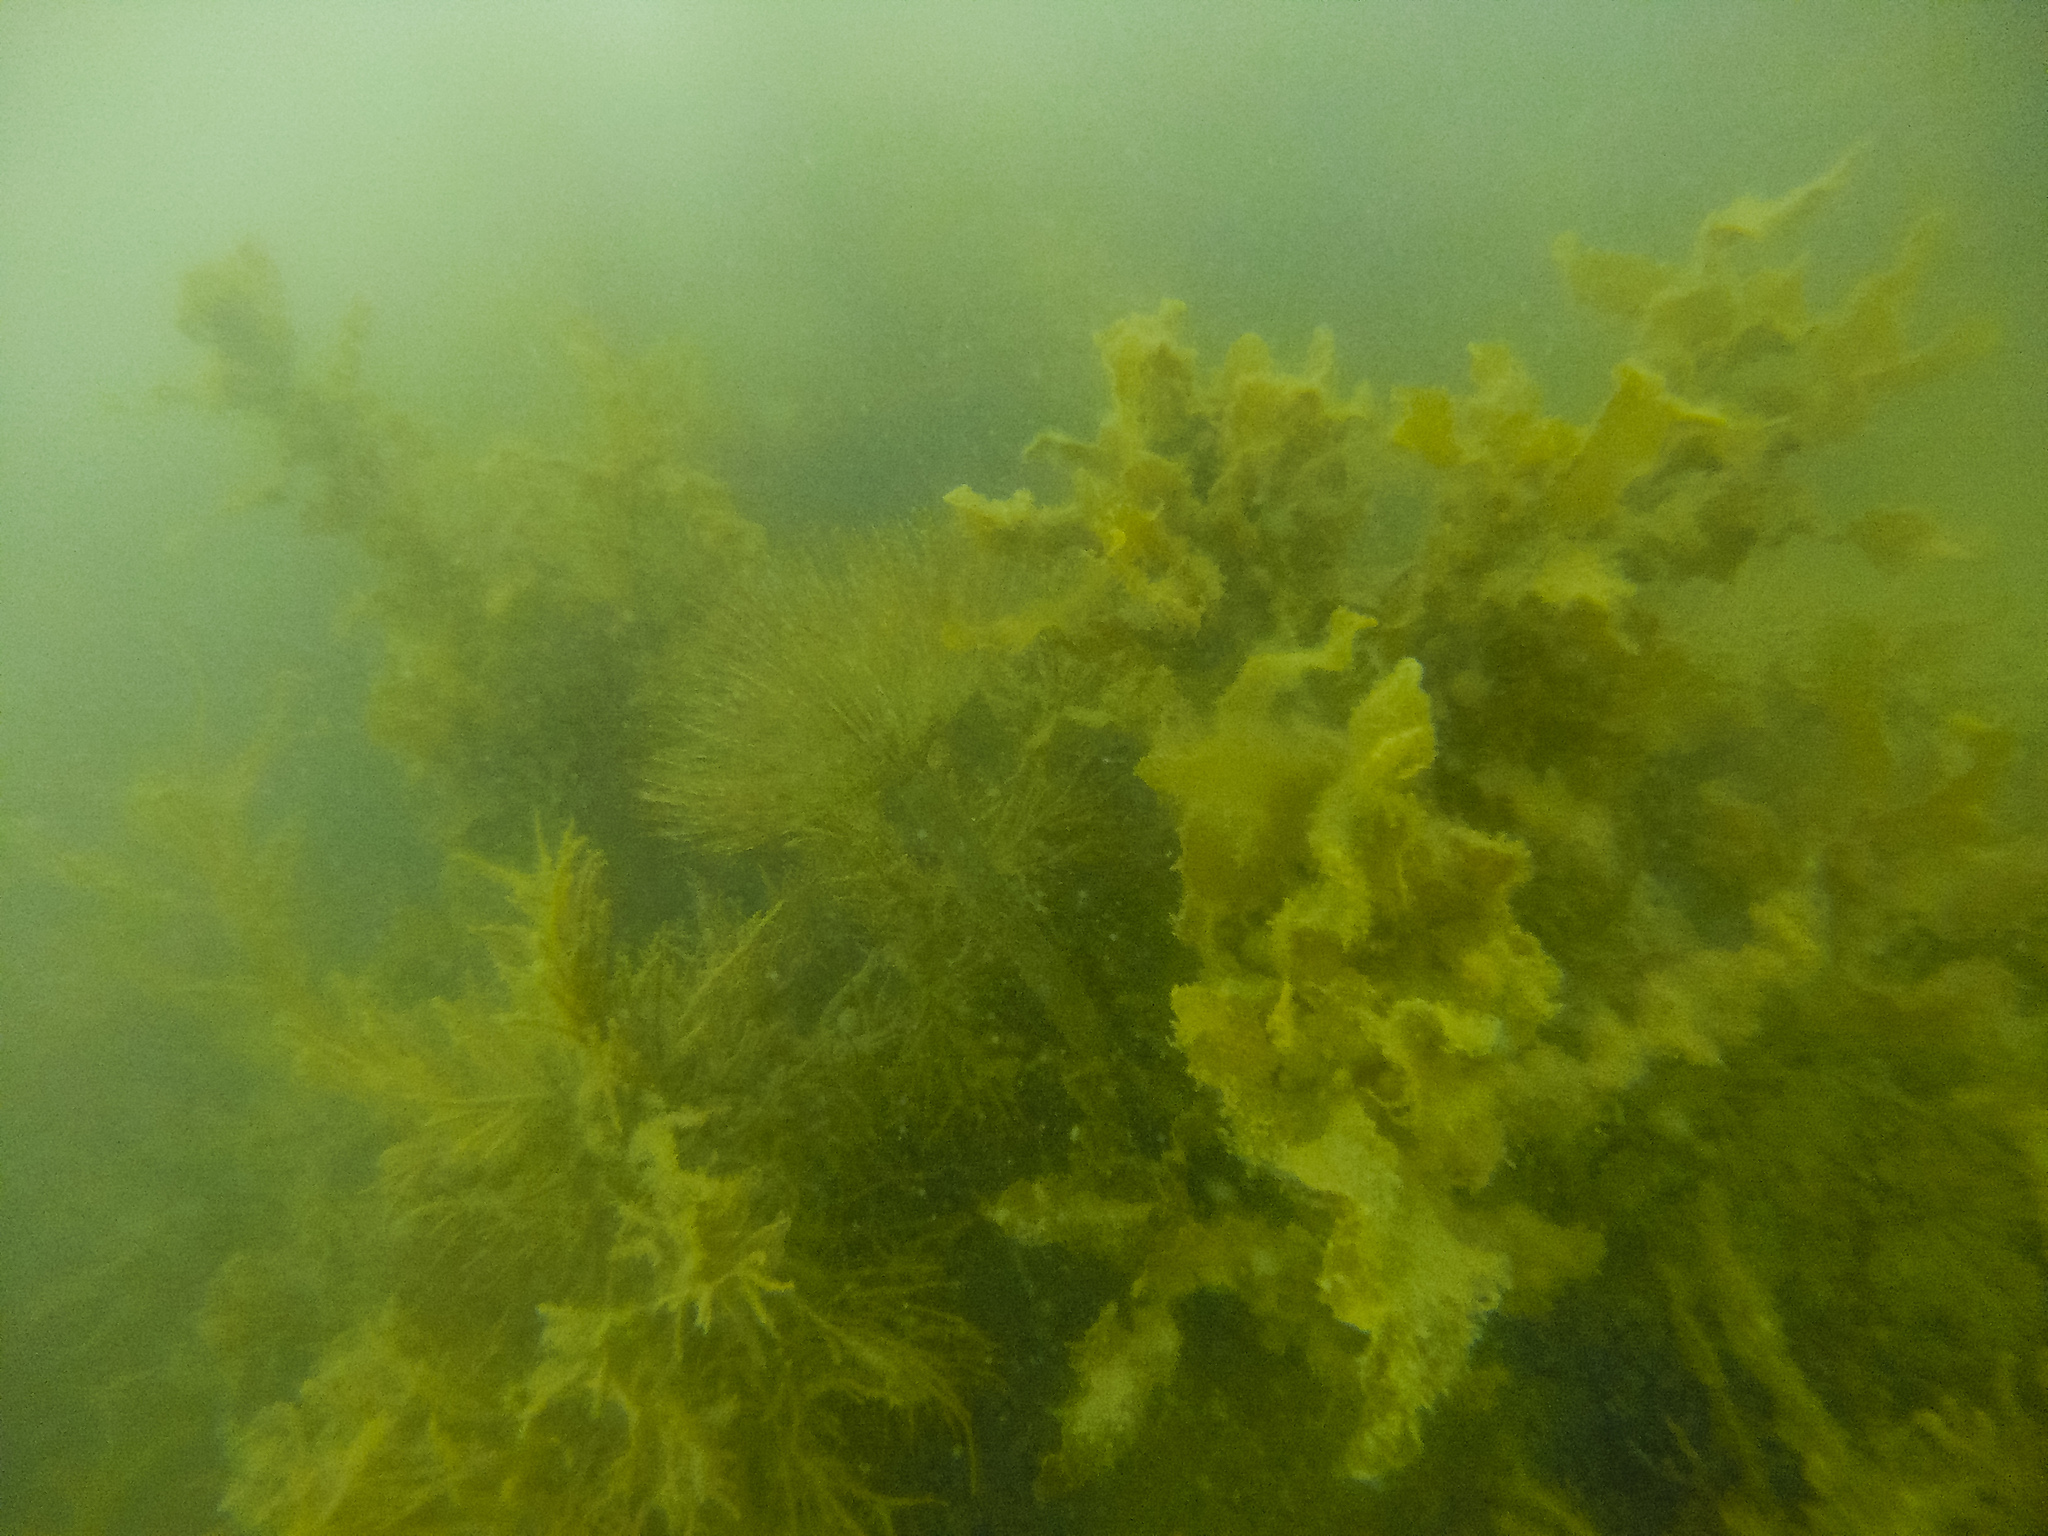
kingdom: Animalia
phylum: Annelida
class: Polychaeta
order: Sabellida
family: Sabellidae
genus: Sabella
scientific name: Sabella spallanzanii
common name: Feather duster worm
